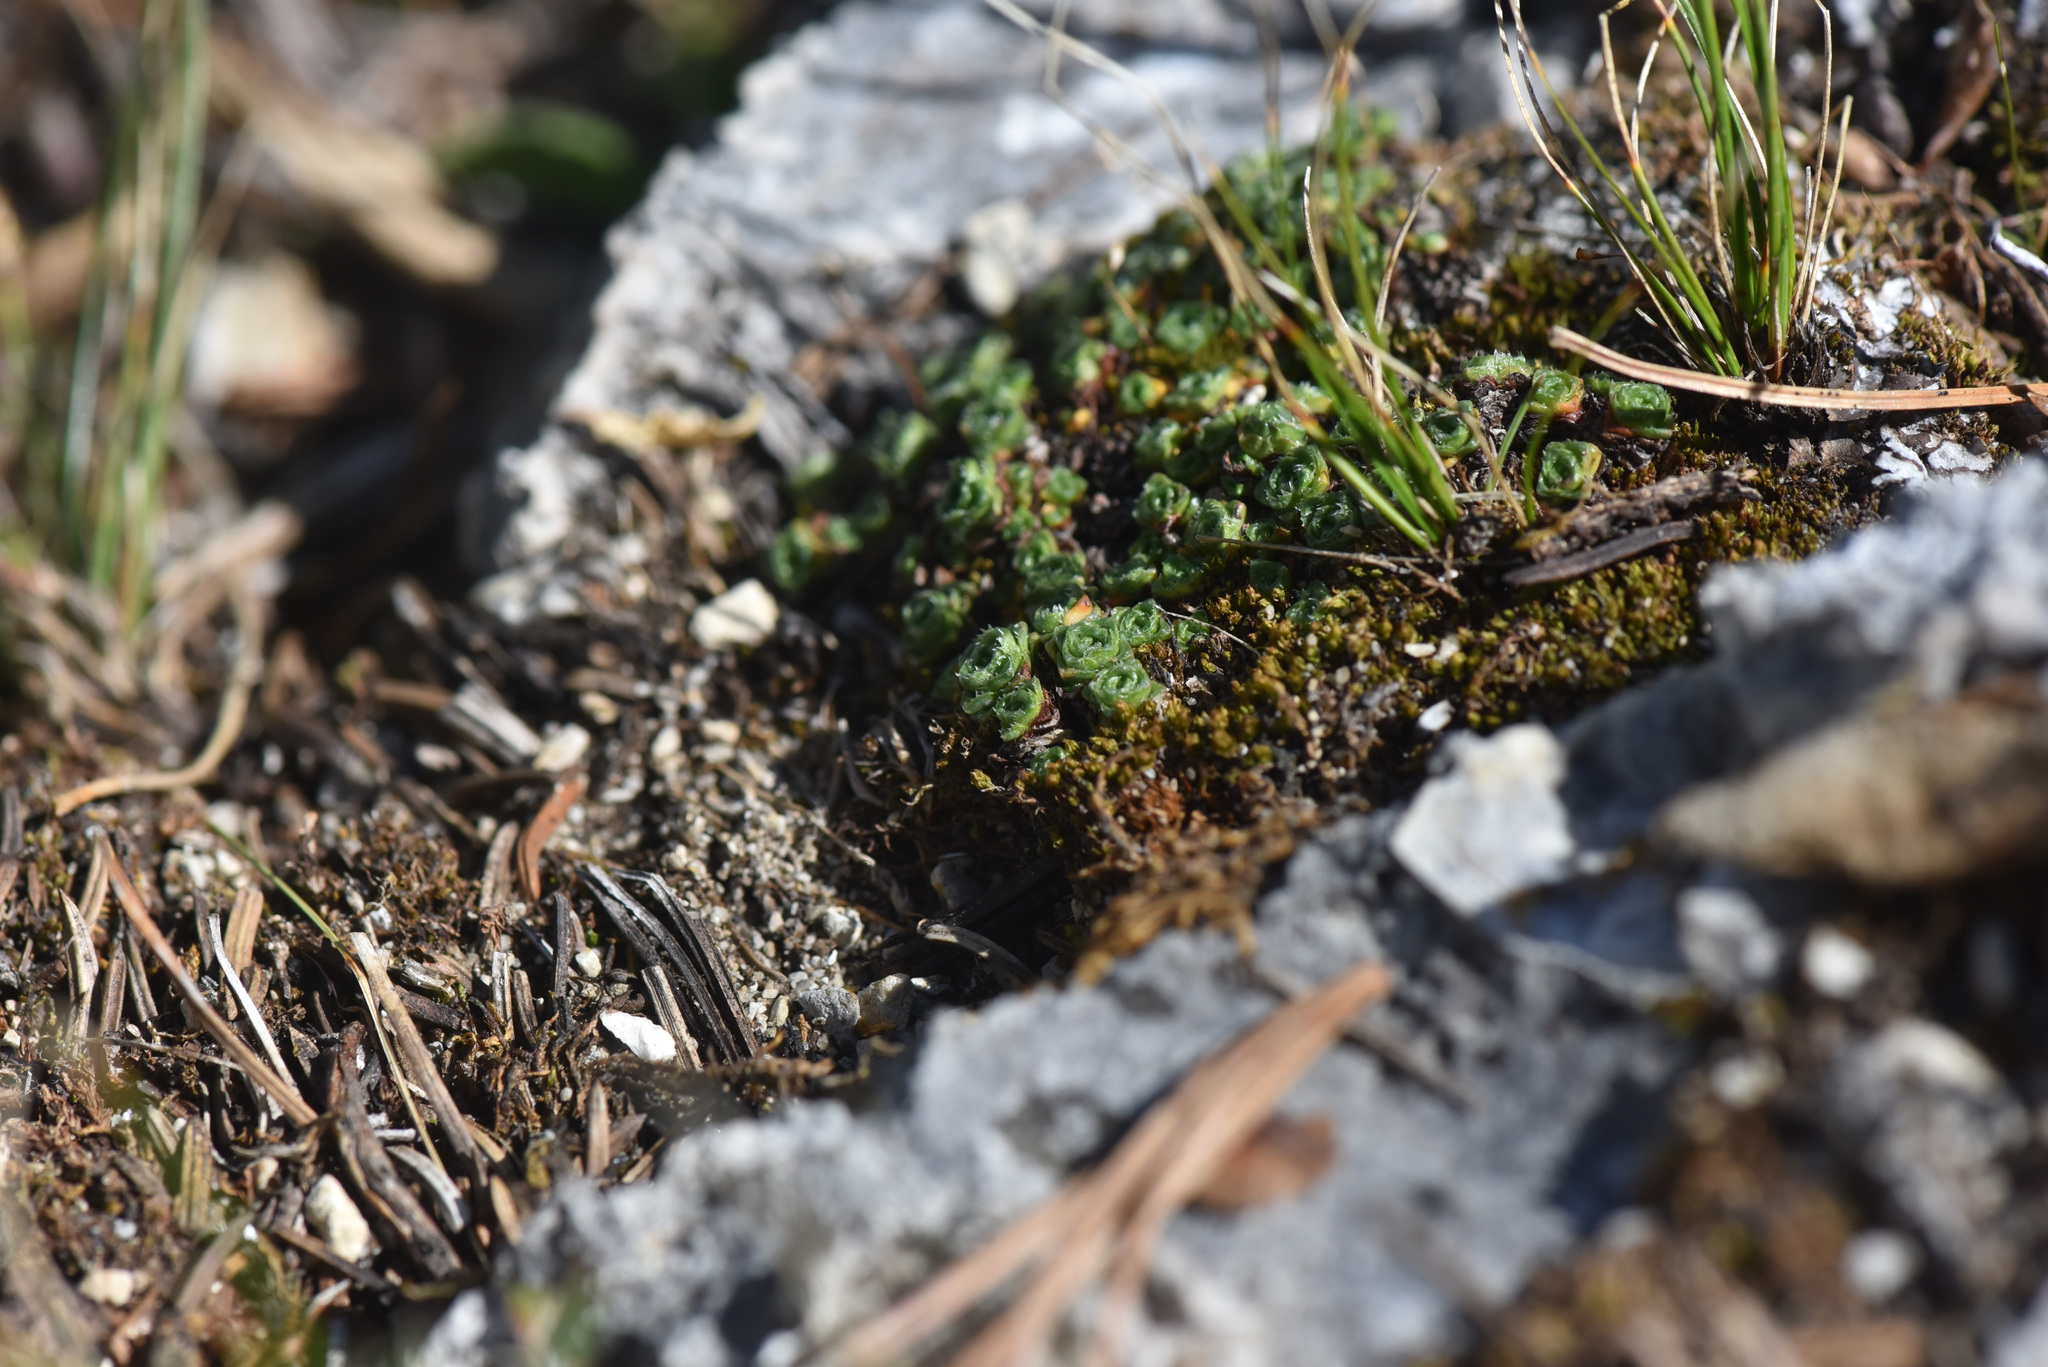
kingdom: Plantae
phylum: Tracheophyta
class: Magnoliopsida
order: Saxifragales
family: Saxifragaceae
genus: Saxifraga
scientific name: Saxifraga oppositifolia
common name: Purple saxifrage
